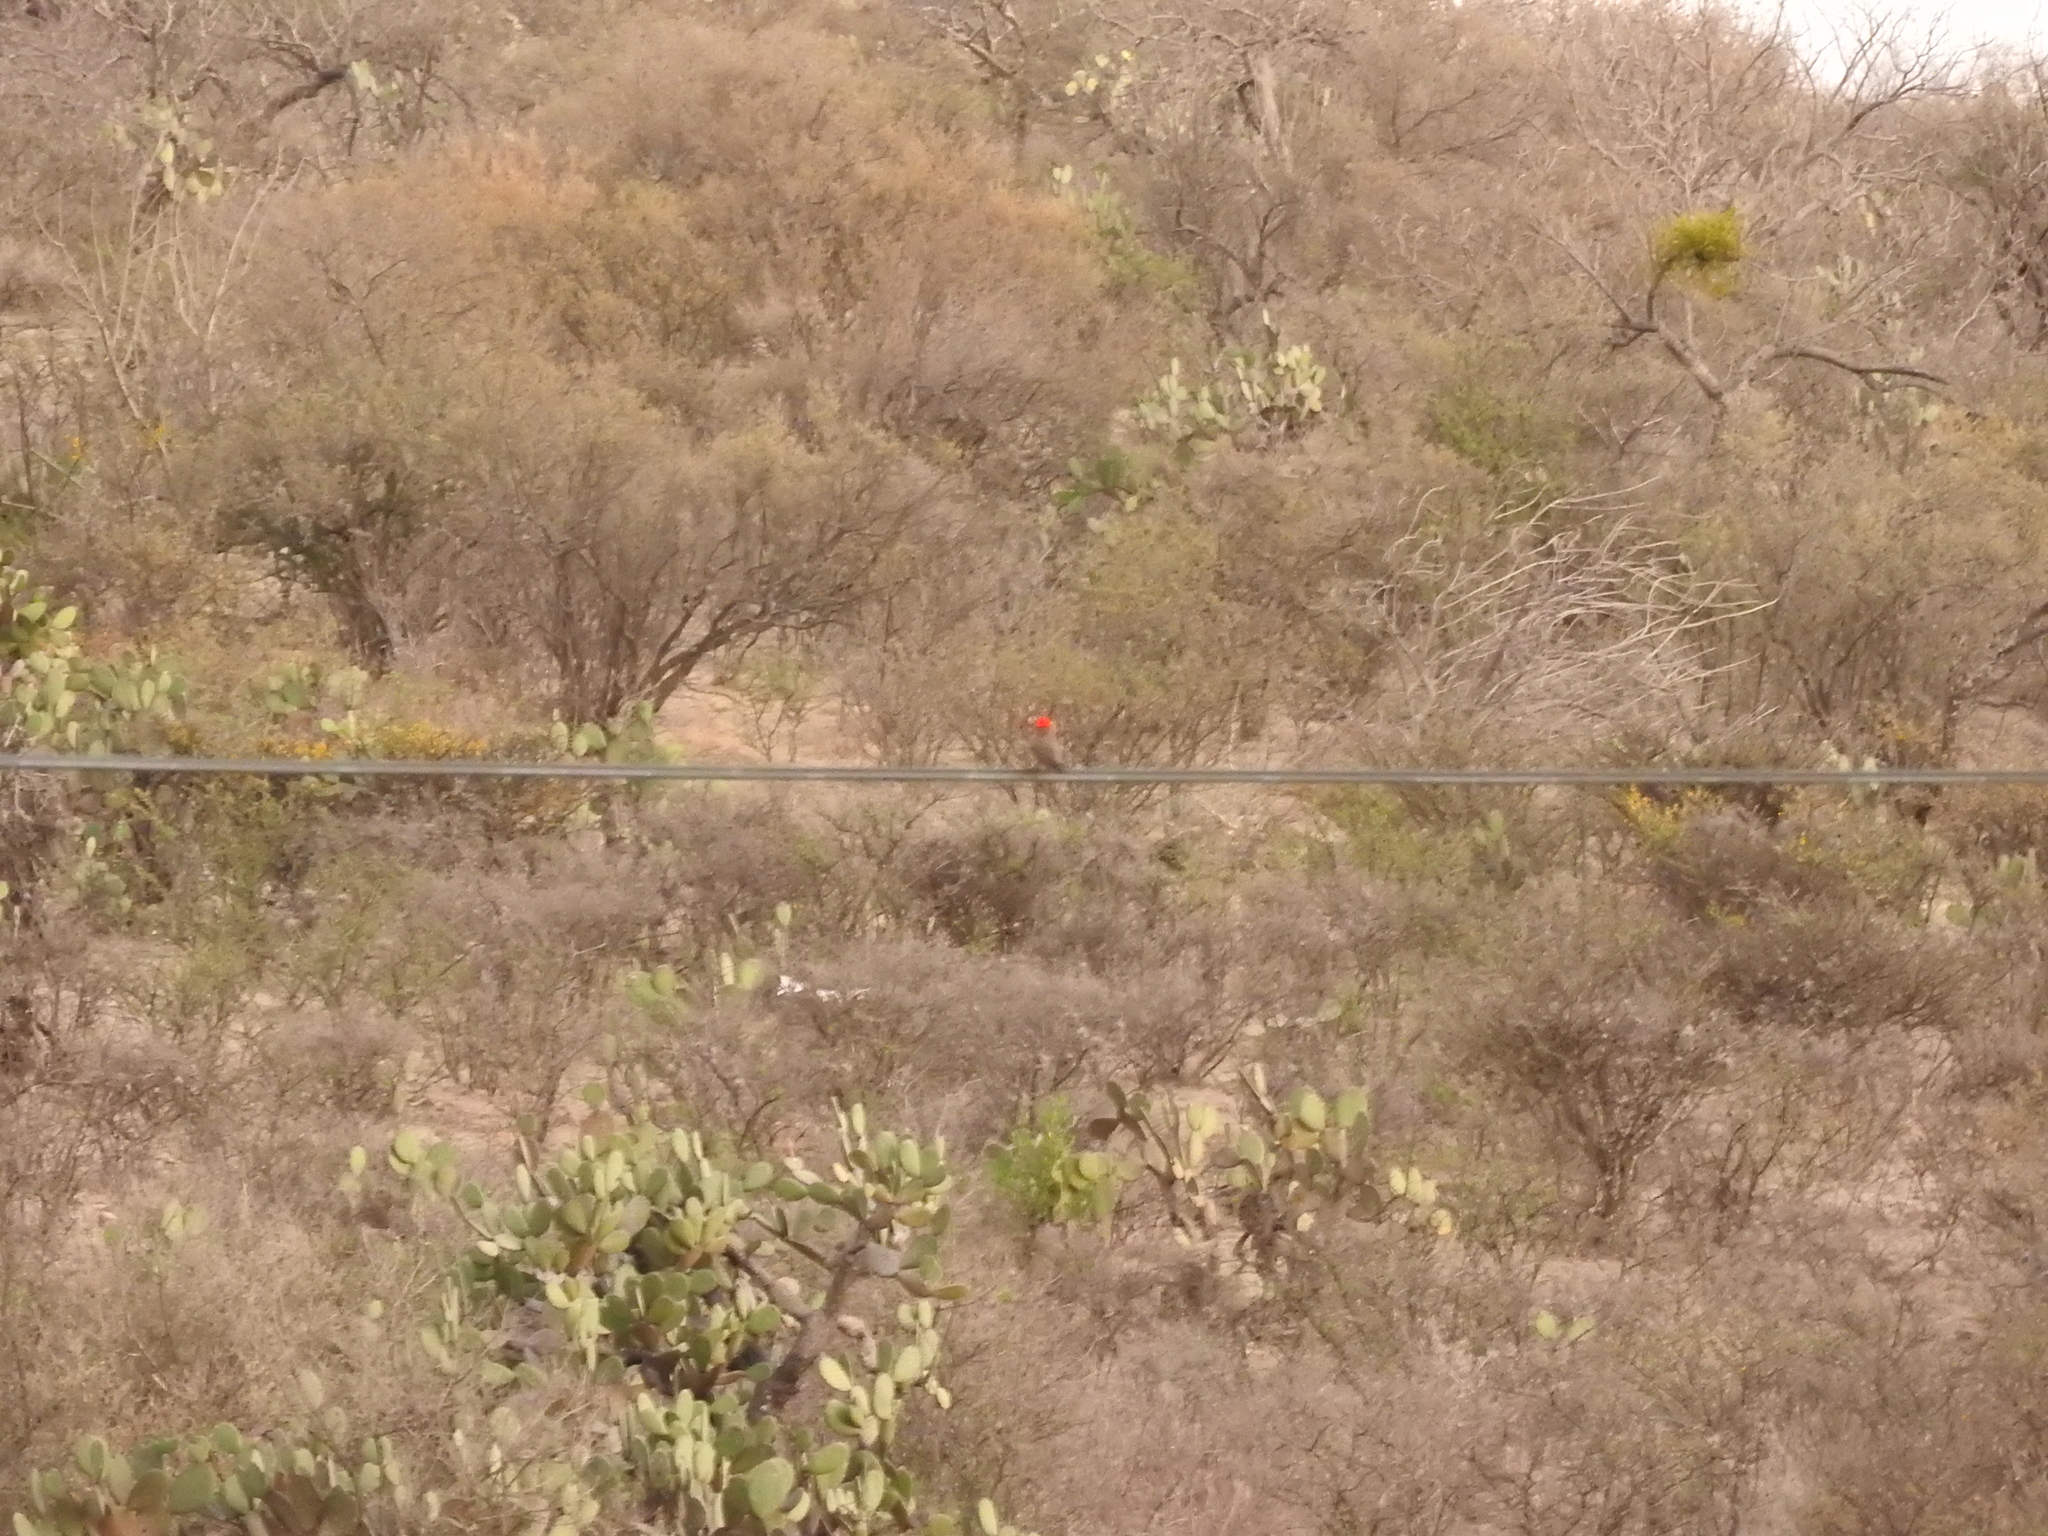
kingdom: Animalia
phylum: Chordata
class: Aves
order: Passeriformes
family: Tyrannidae
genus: Pyrocephalus
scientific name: Pyrocephalus rubinus
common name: Vermilion flycatcher
